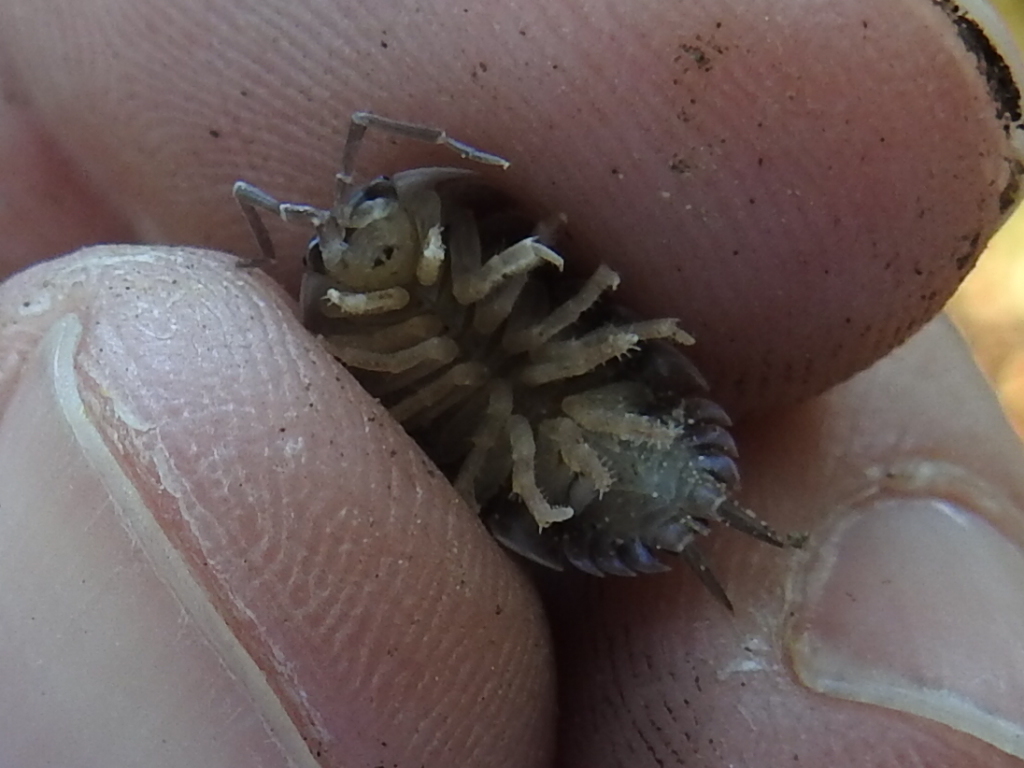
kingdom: Animalia
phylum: Arthropoda
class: Malacostraca
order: Isopoda
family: Porcellionidae
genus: Porcellio
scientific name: Porcellio laevis
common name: Swift woodlouse
